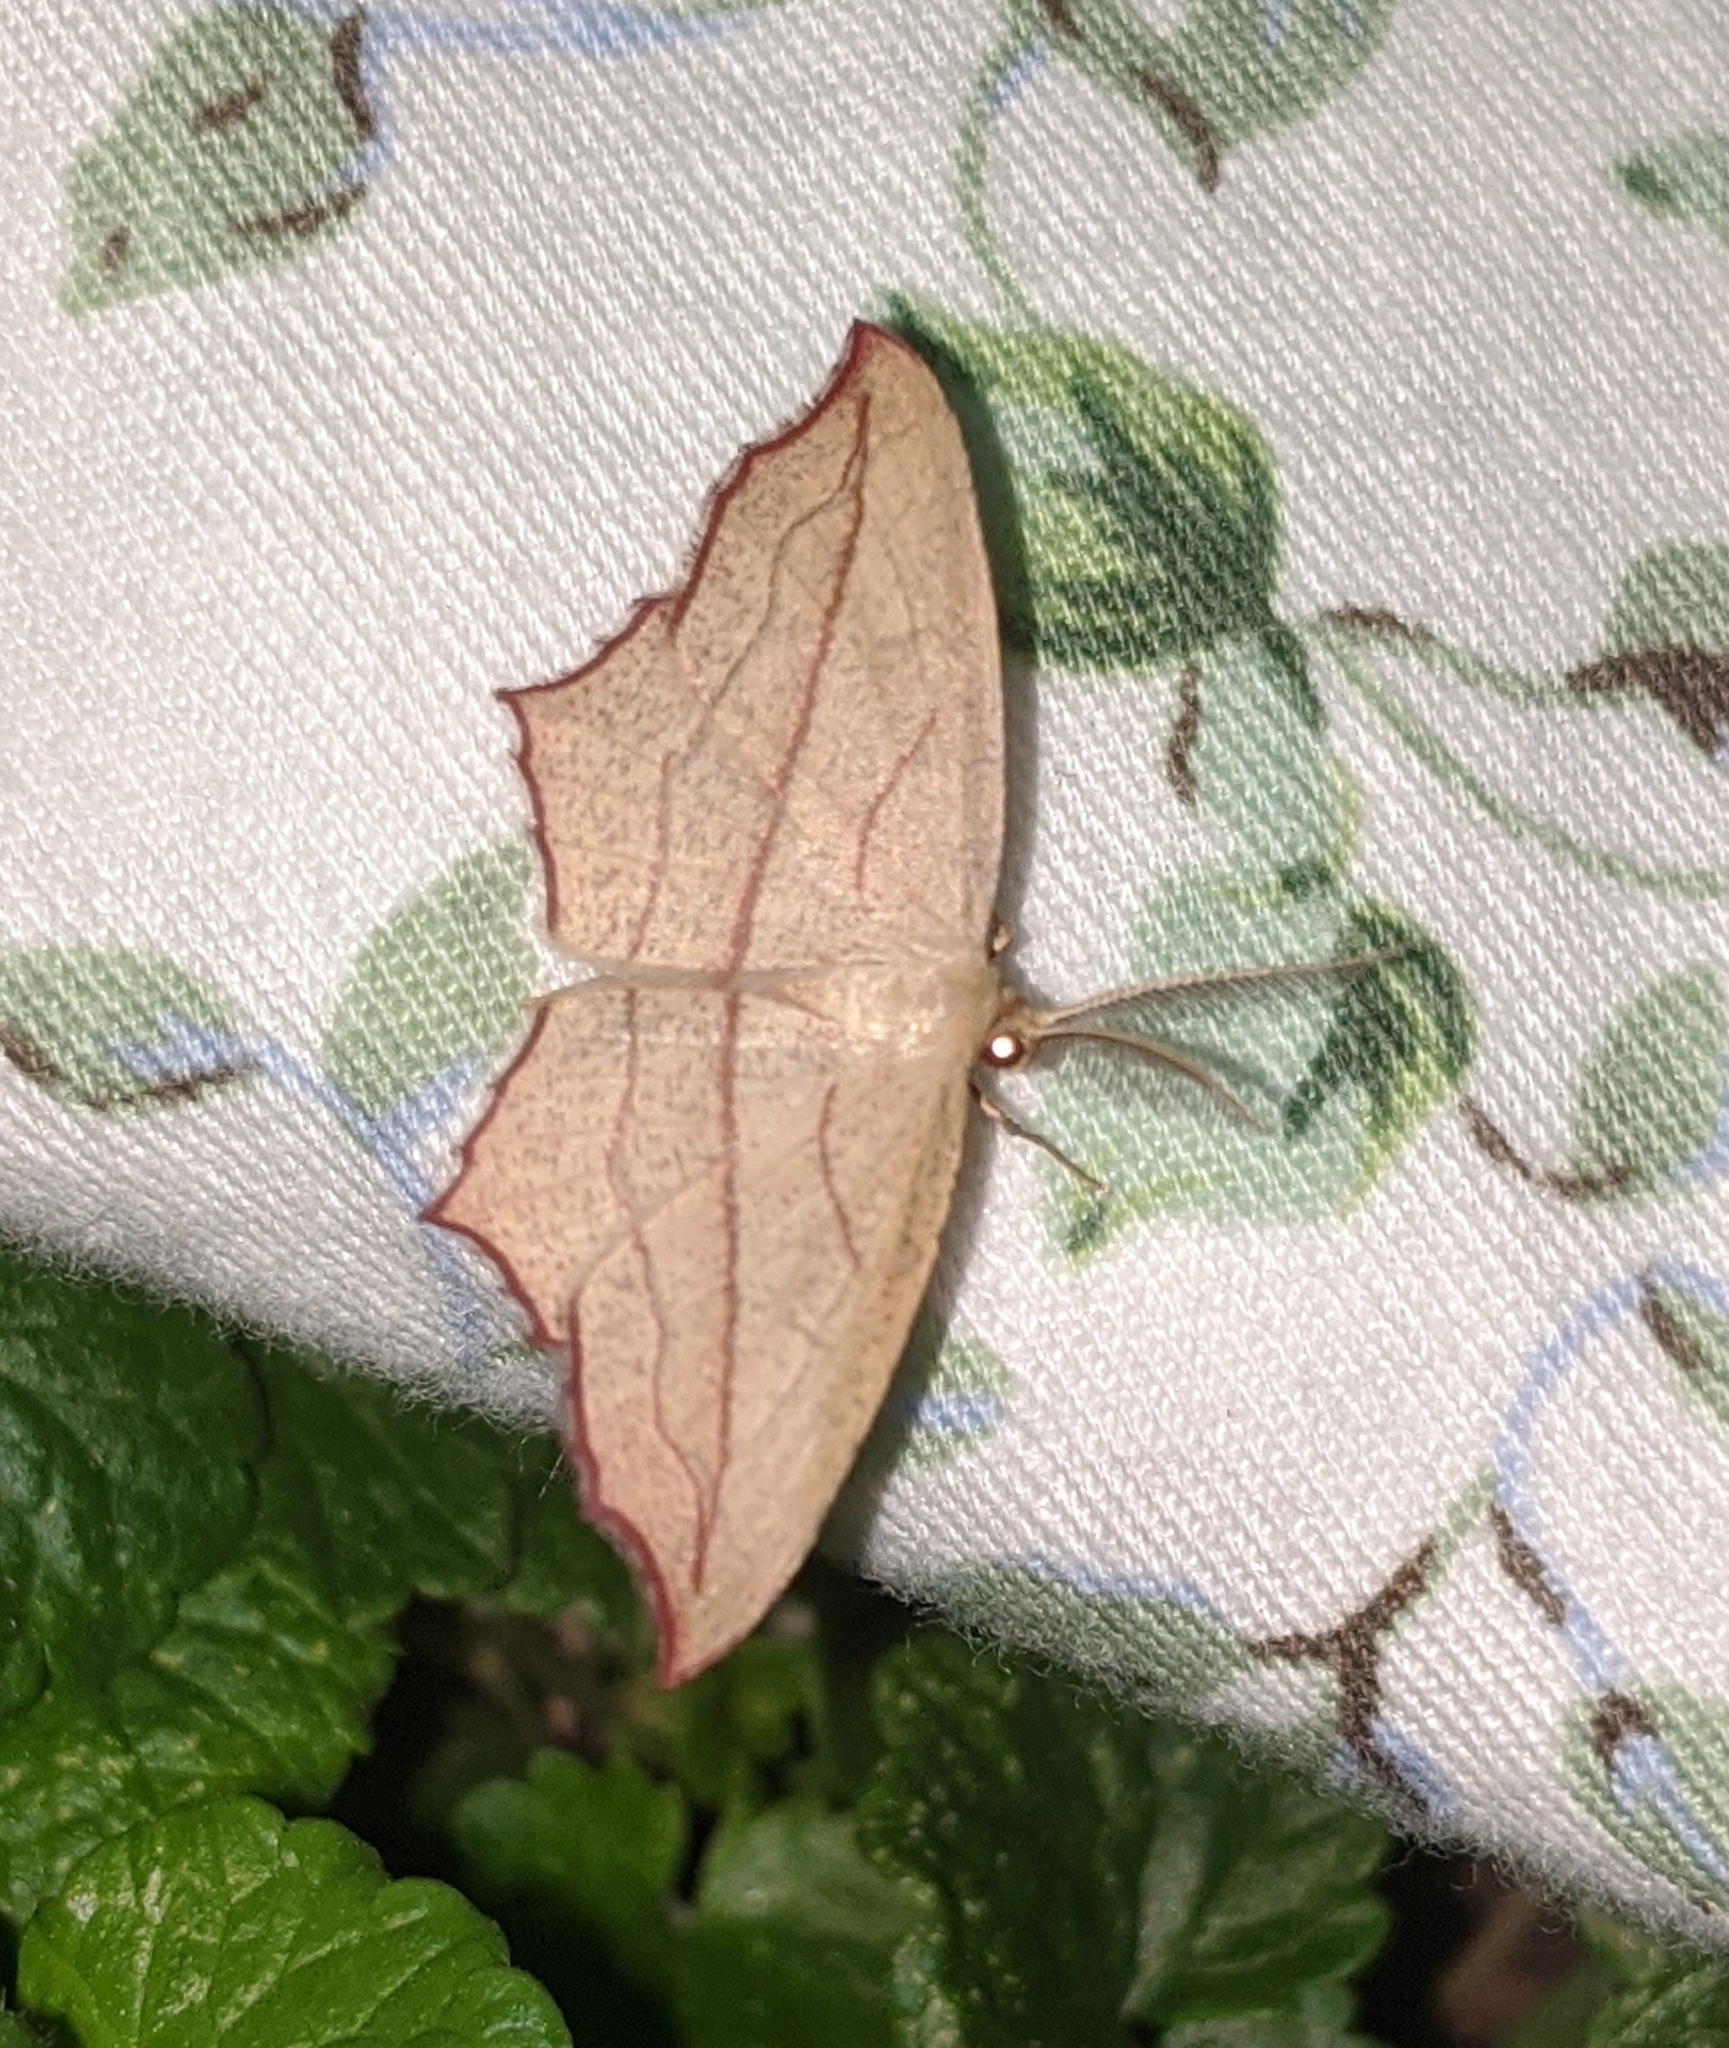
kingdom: Animalia
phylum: Arthropoda
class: Insecta
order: Lepidoptera
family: Geometridae
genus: Timandra
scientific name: Timandra amaturaria
